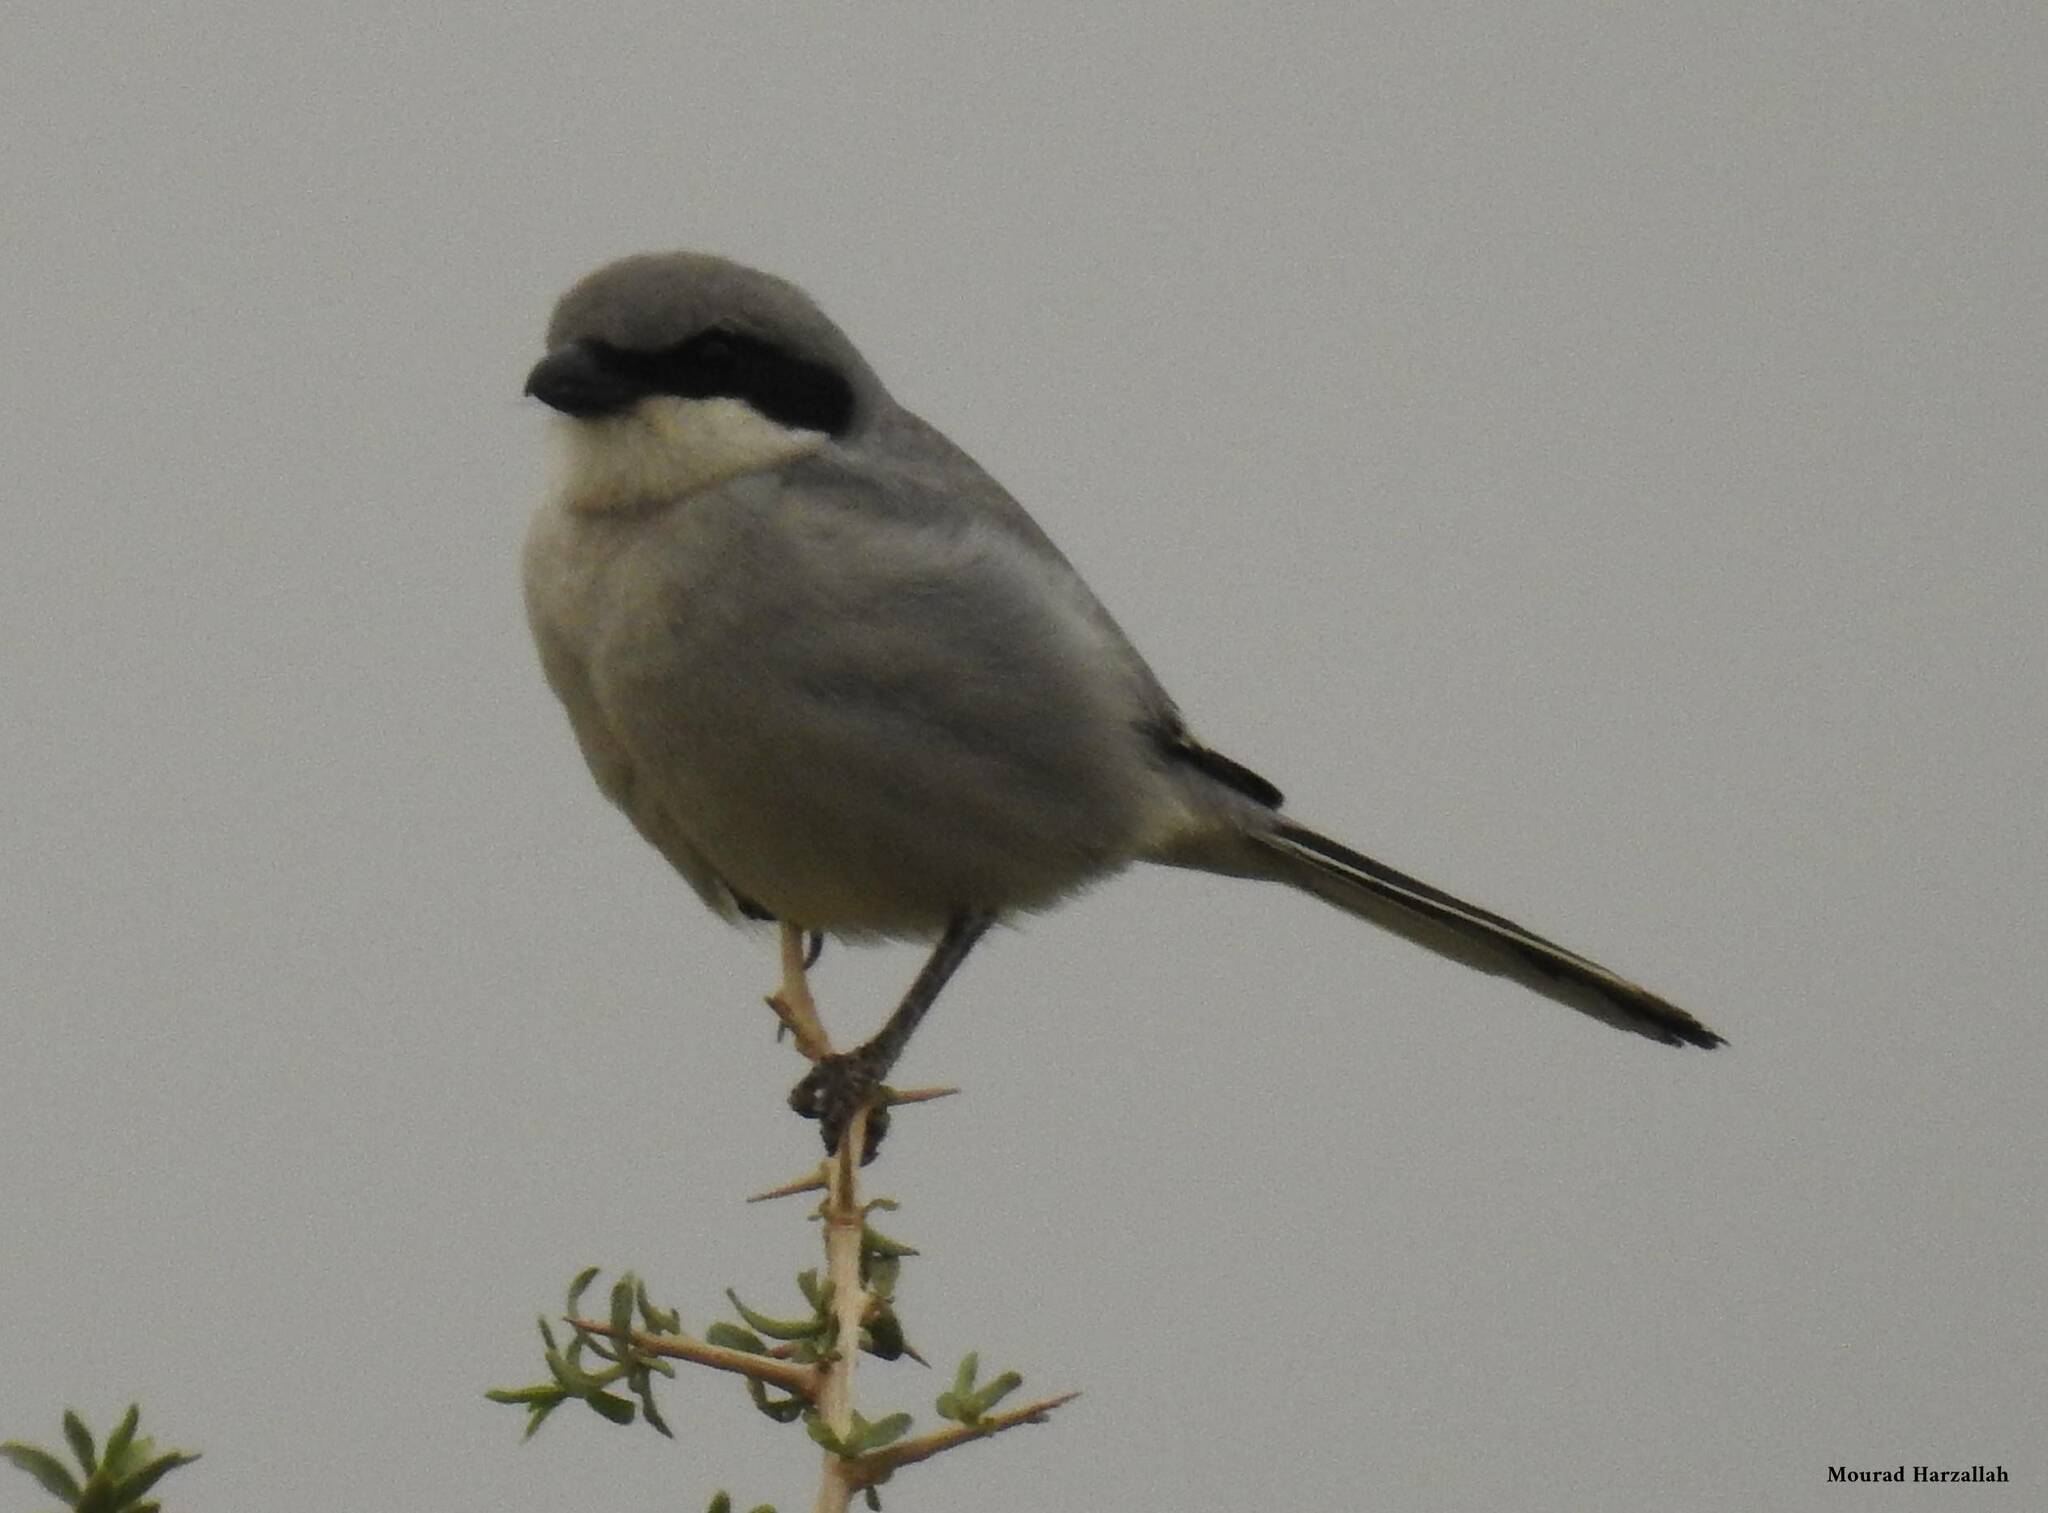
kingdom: Animalia
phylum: Chordata
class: Aves
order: Passeriformes
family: Laniidae
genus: Lanius
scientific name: Lanius excubitor
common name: Great grey shrike
